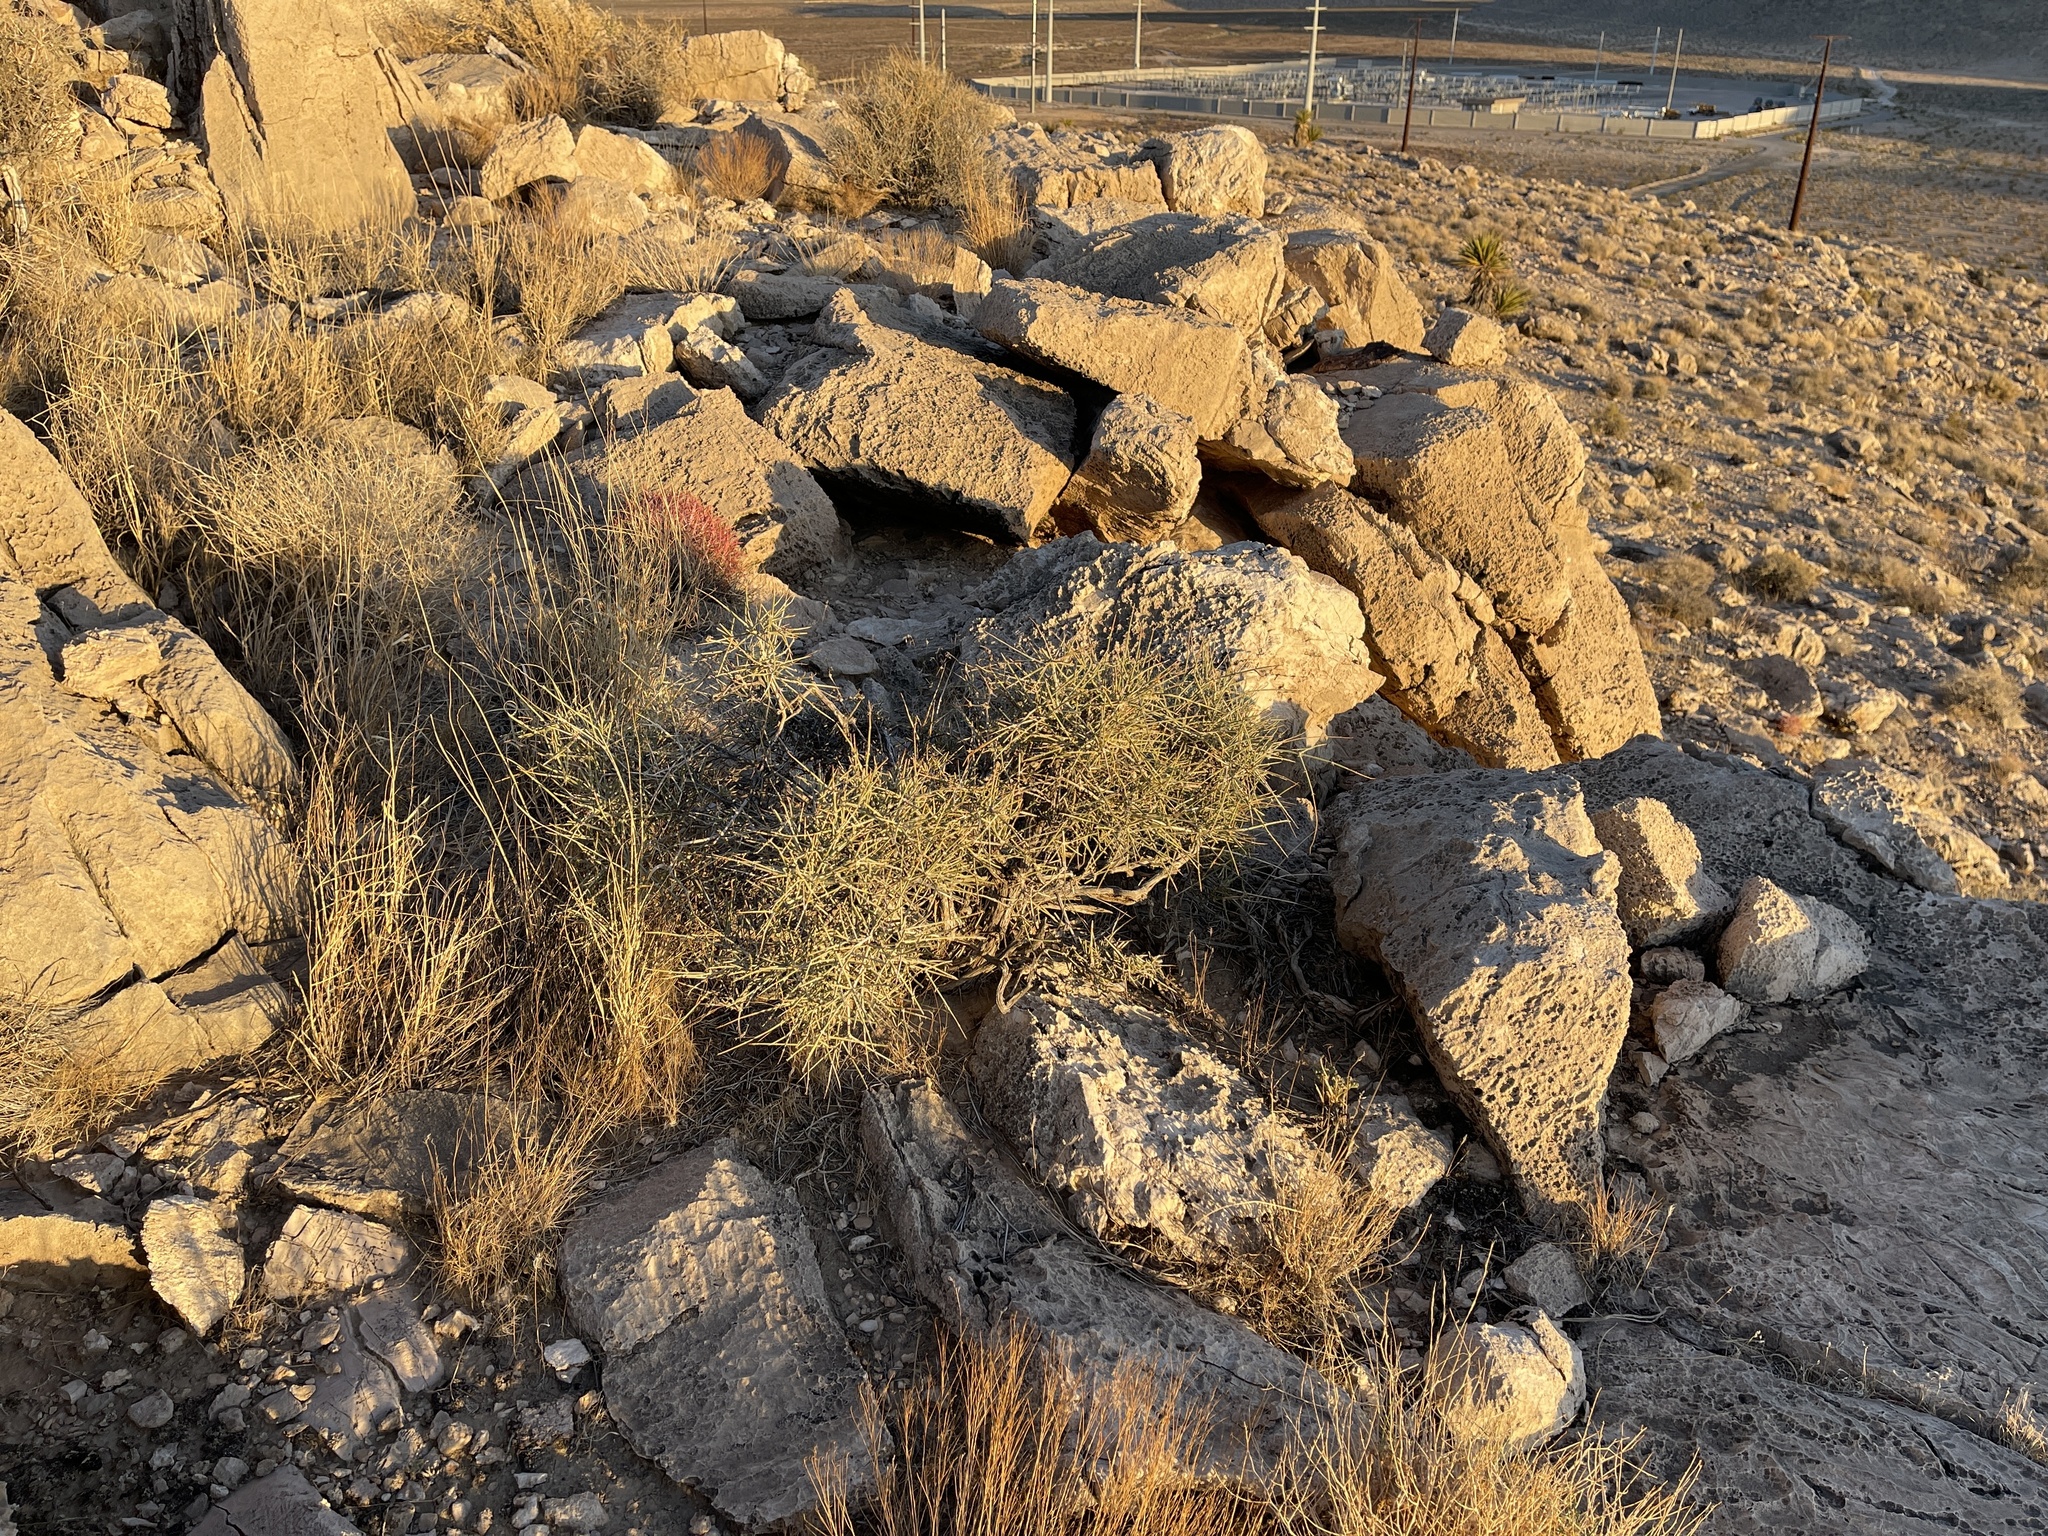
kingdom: Plantae
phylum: Tracheophyta
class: Gnetopsida
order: Ephedrales
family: Ephedraceae
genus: Ephedra
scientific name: Ephedra nevadensis
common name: Gray ephedra
